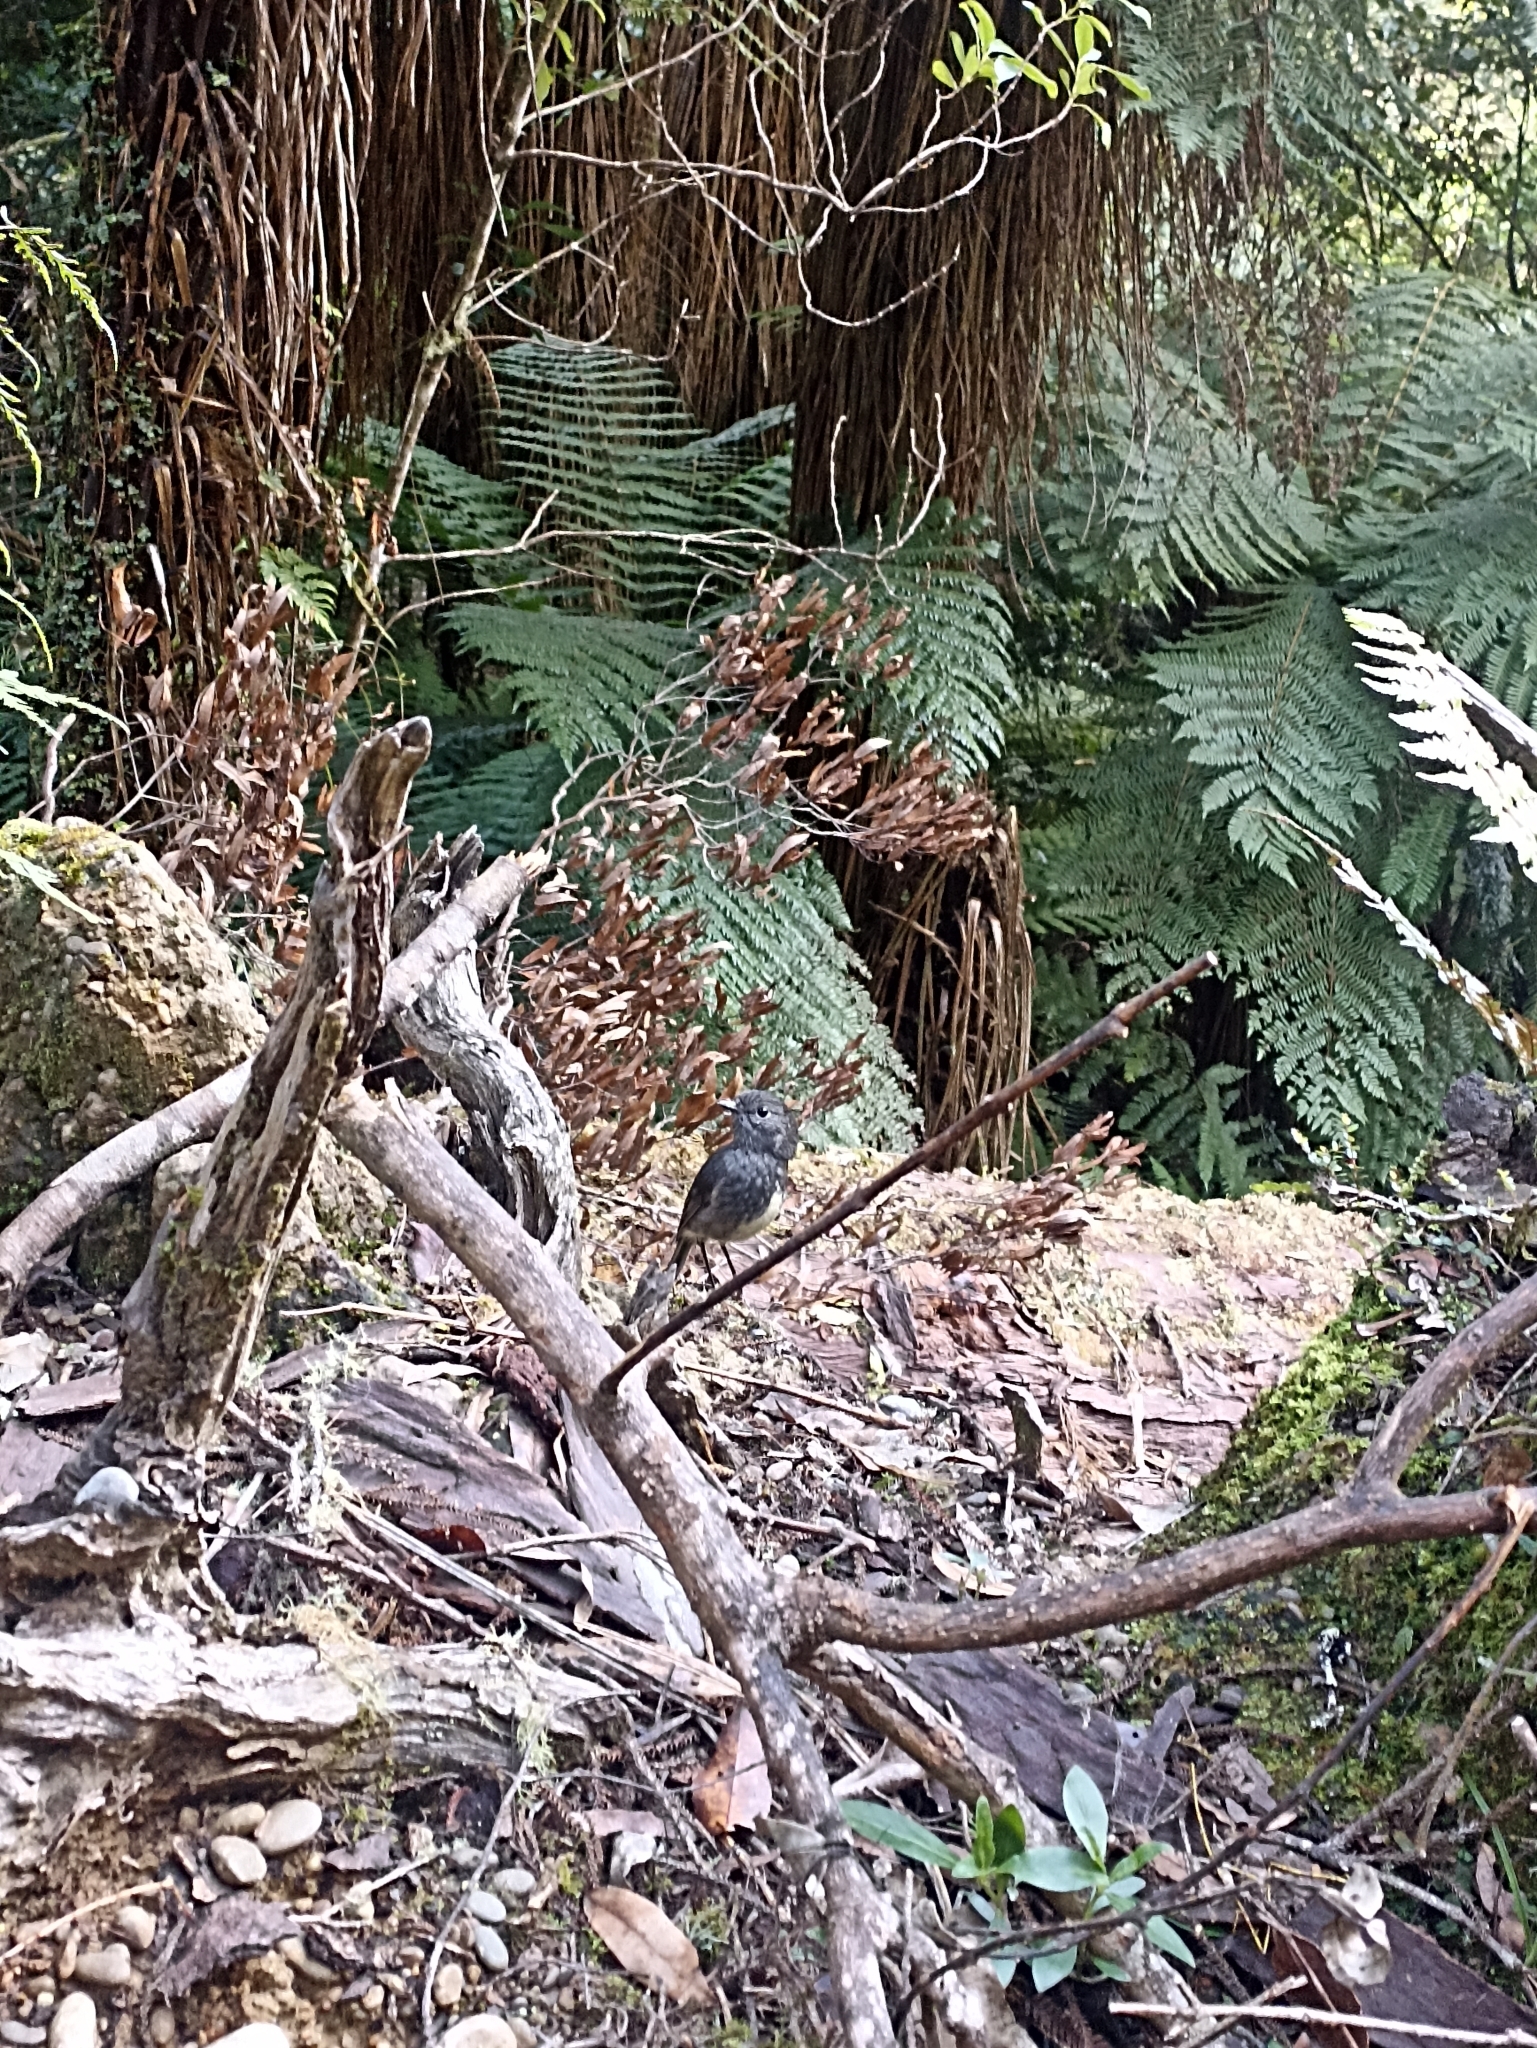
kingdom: Animalia
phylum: Chordata
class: Aves
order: Passeriformes
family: Petroicidae
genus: Petroica
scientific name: Petroica australis
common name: New zealand robin
